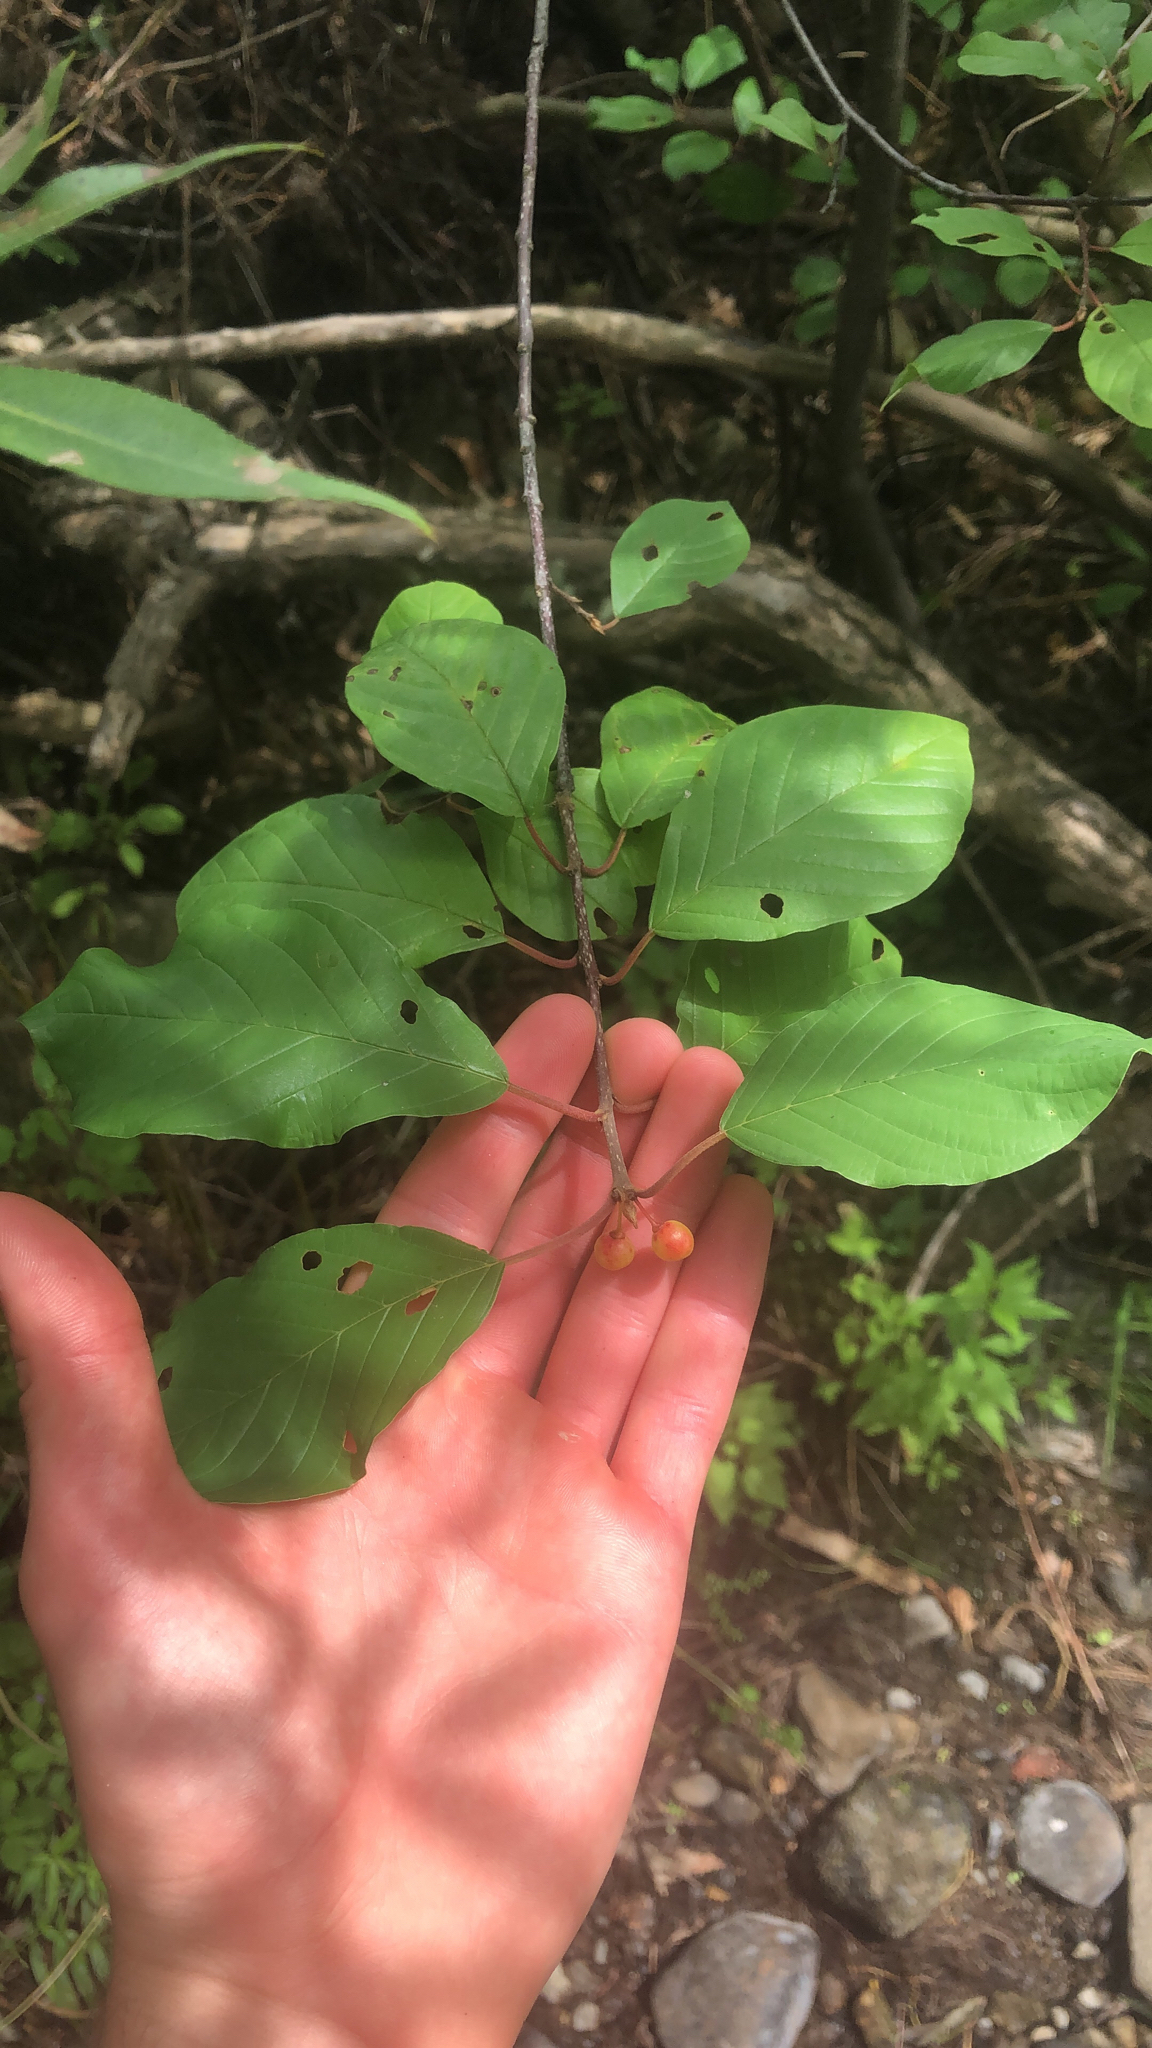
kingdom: Plantae
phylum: Tracheophyta
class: Magnoliopsida
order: Rosales
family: Rhamnaceae
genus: Frangula
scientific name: Frangula alnus
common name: Alder buckthorn
